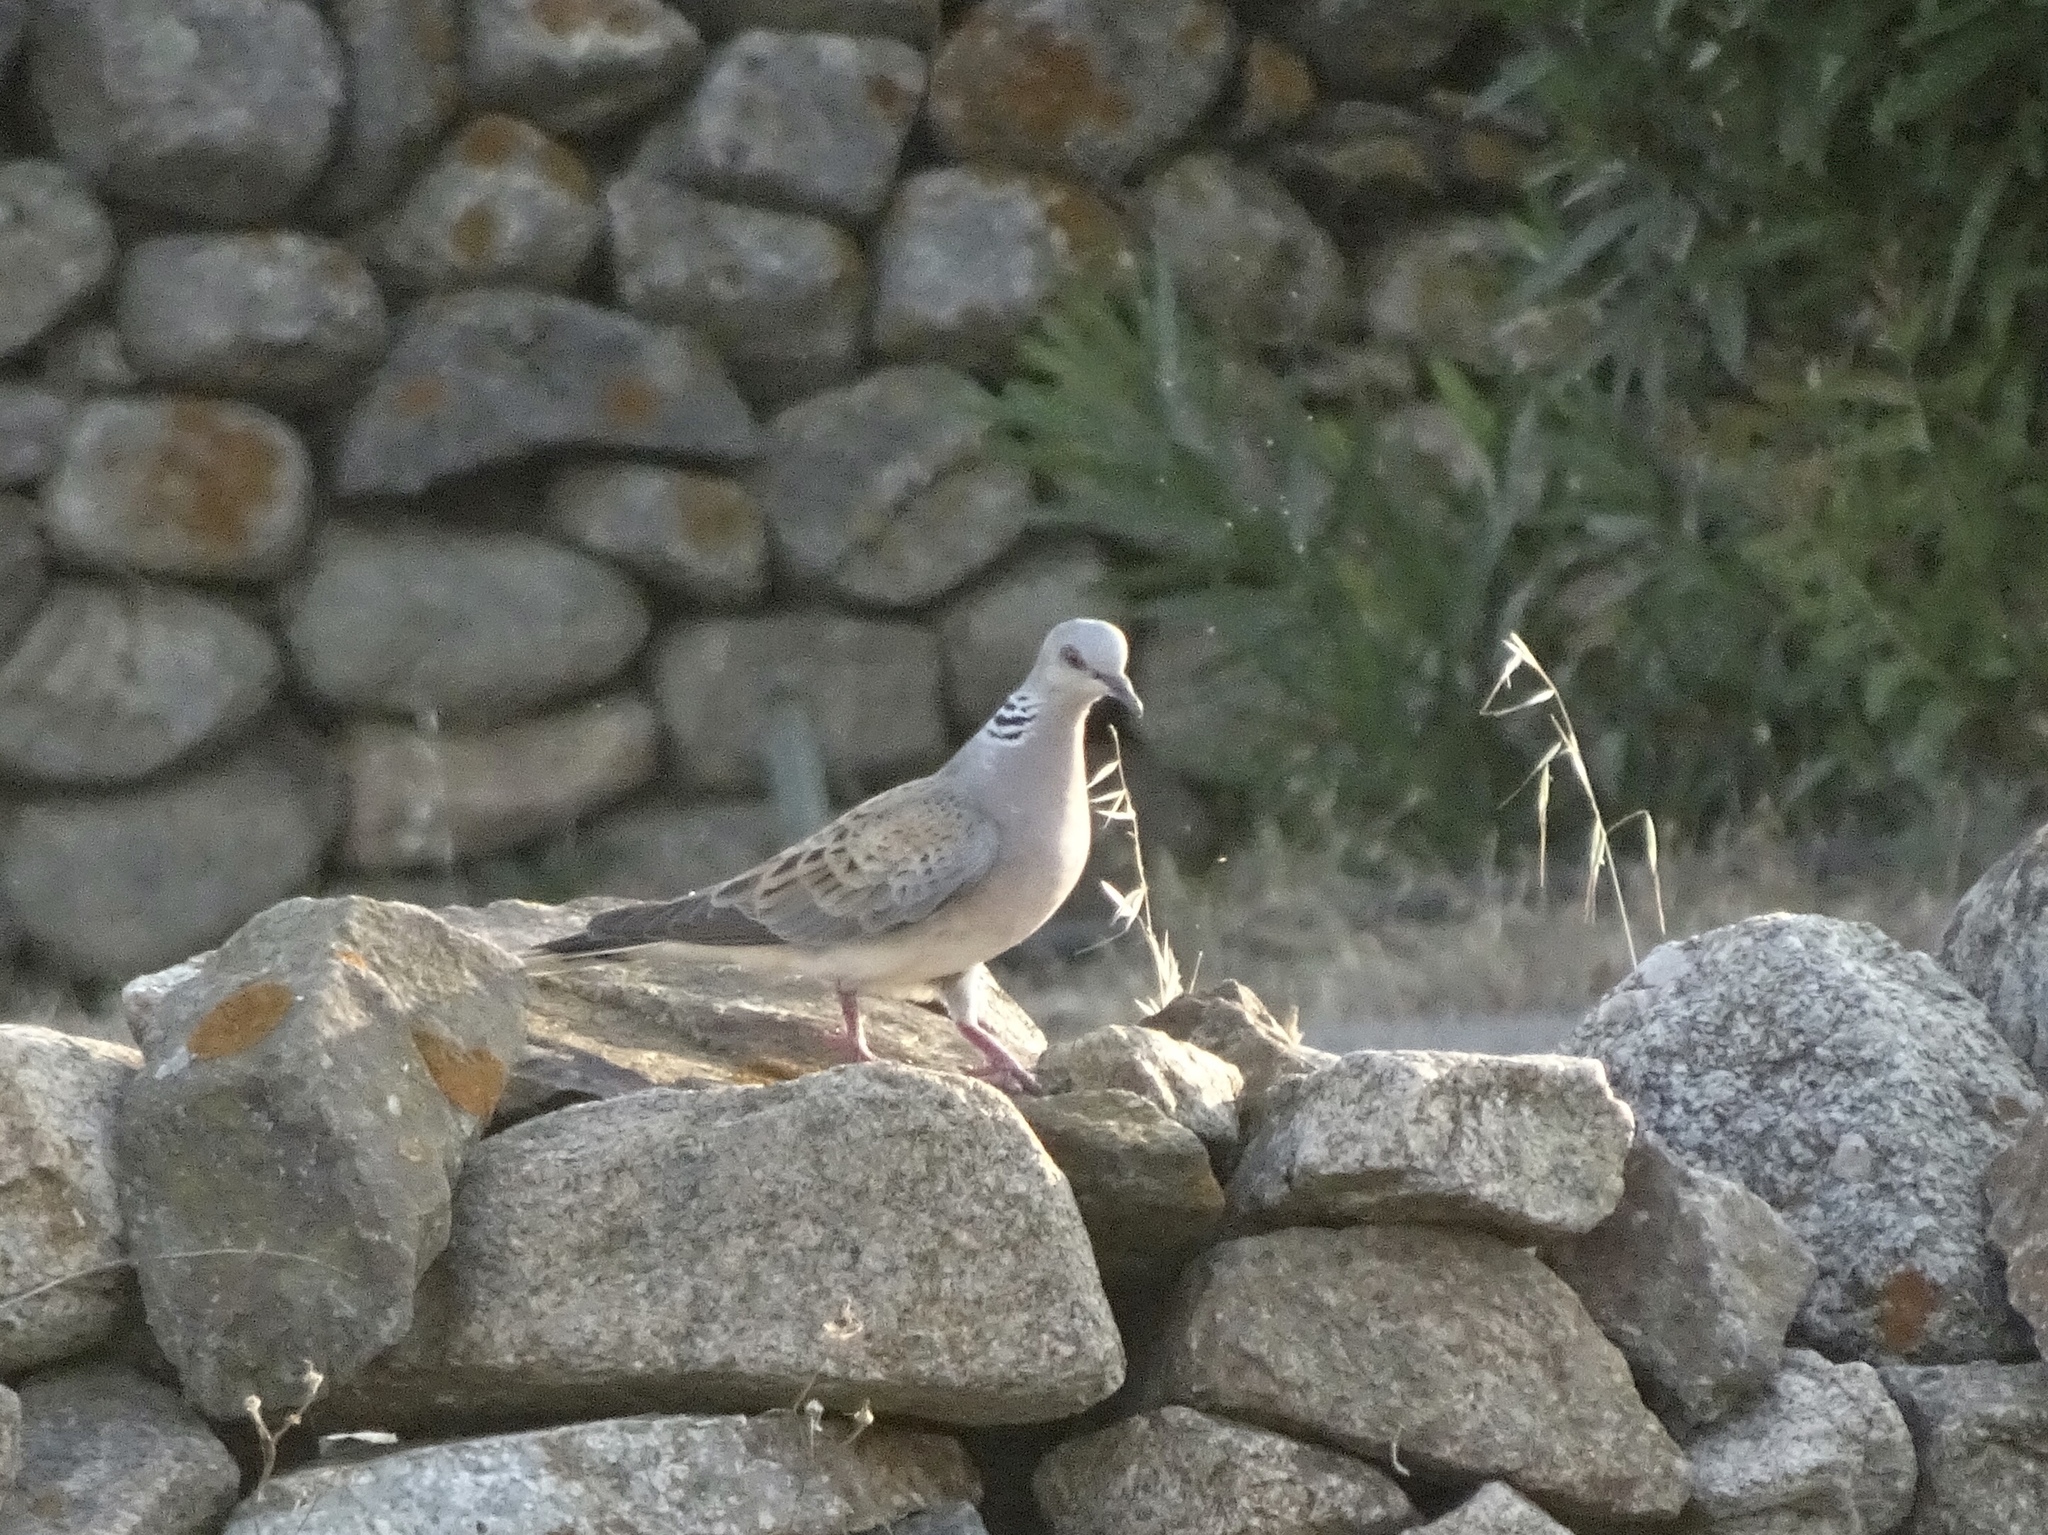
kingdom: Animalia
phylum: Chordata
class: Aves
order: Columbiformes
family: Columbidae
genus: Streptopelia
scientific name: Streptopelia turtur
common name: European turtle dove
